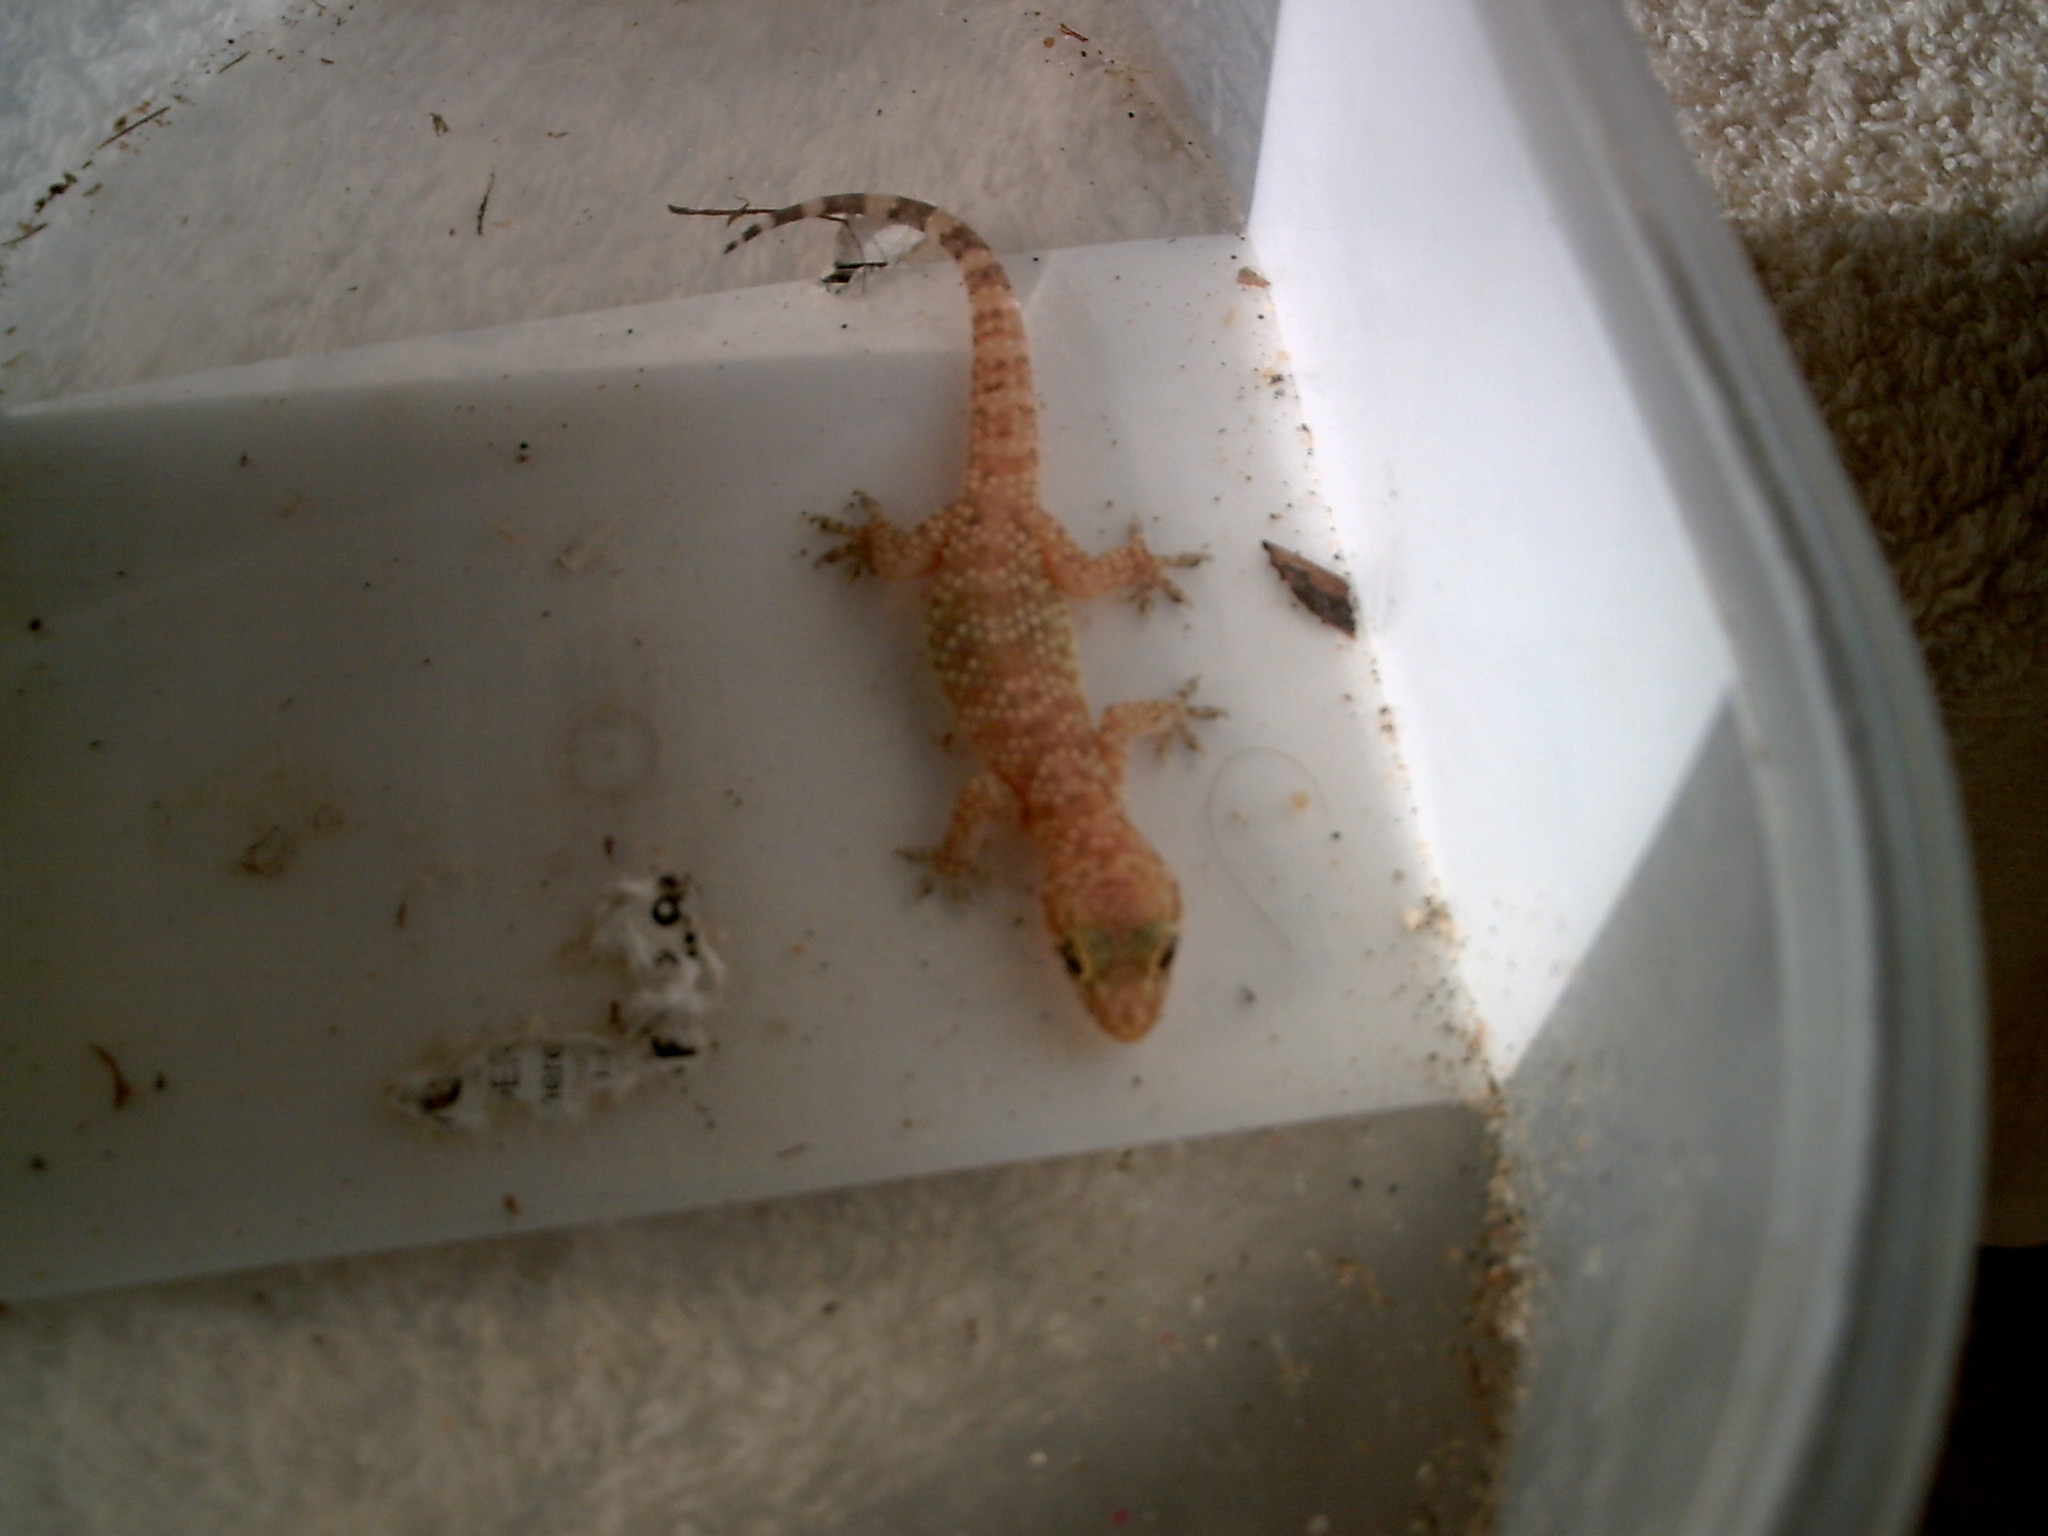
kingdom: Animalia
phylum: Chordata
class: Squamata
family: Gekkonidae
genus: Hemidactylus
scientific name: Hemidactylus turcicus
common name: Turkish gecko
